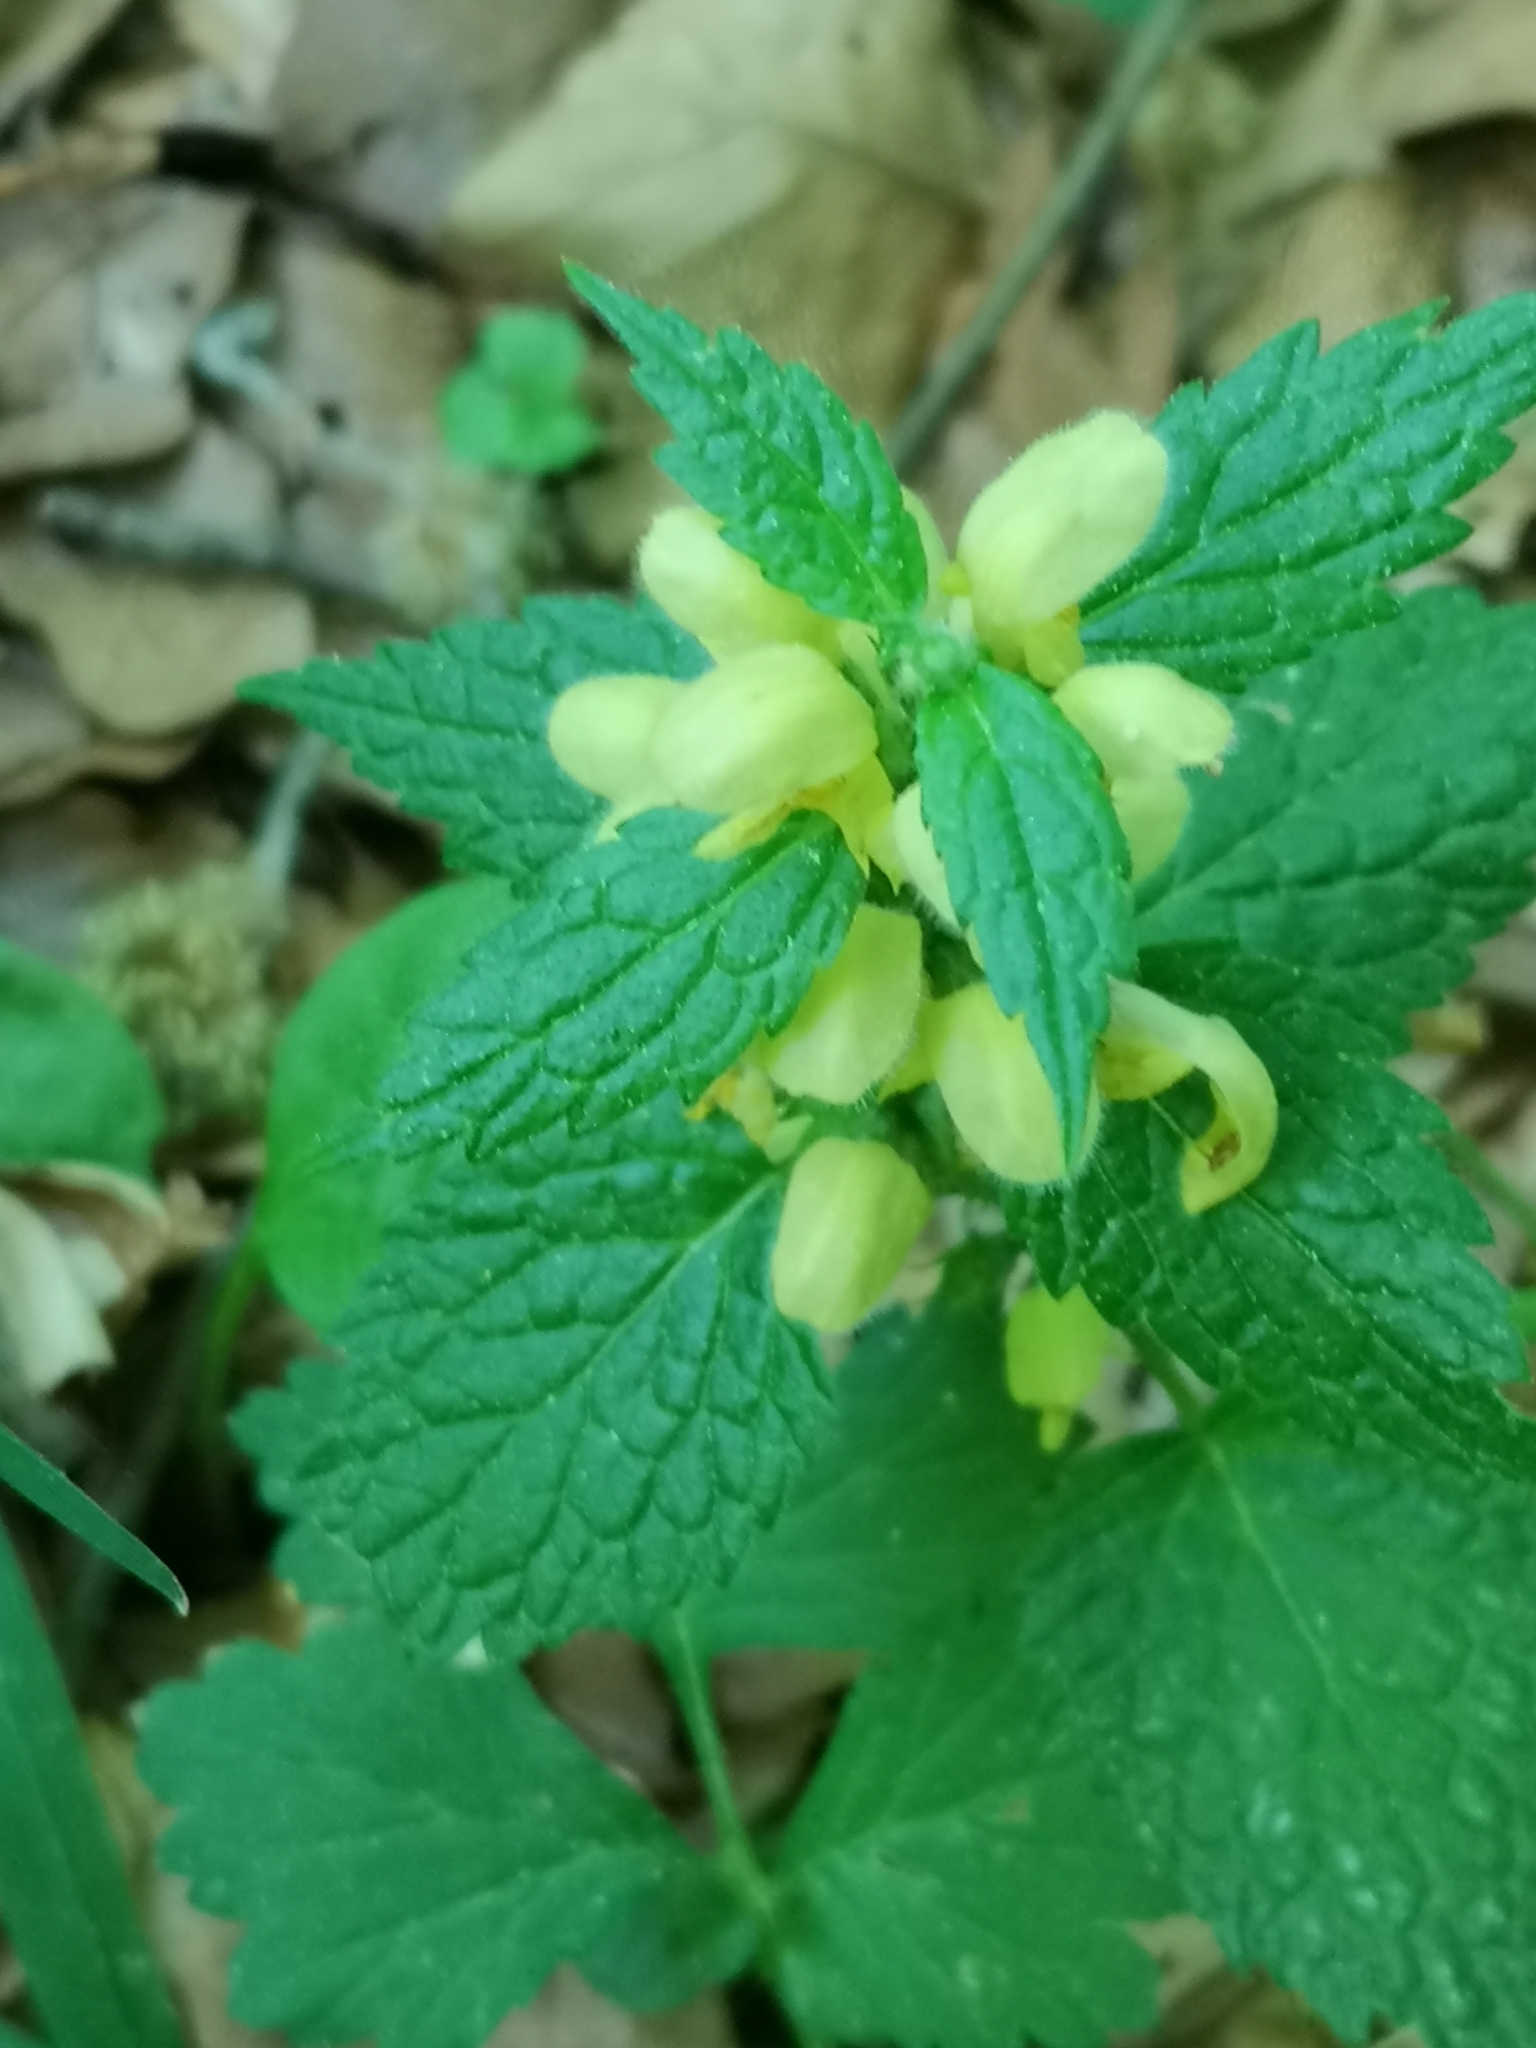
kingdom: Plantae
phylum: Tracheophyta
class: Magnoliopsida
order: Lamiales
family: Lamiaceae
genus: Lamium
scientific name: Lamium galeobdolon
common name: Yellow archangel
